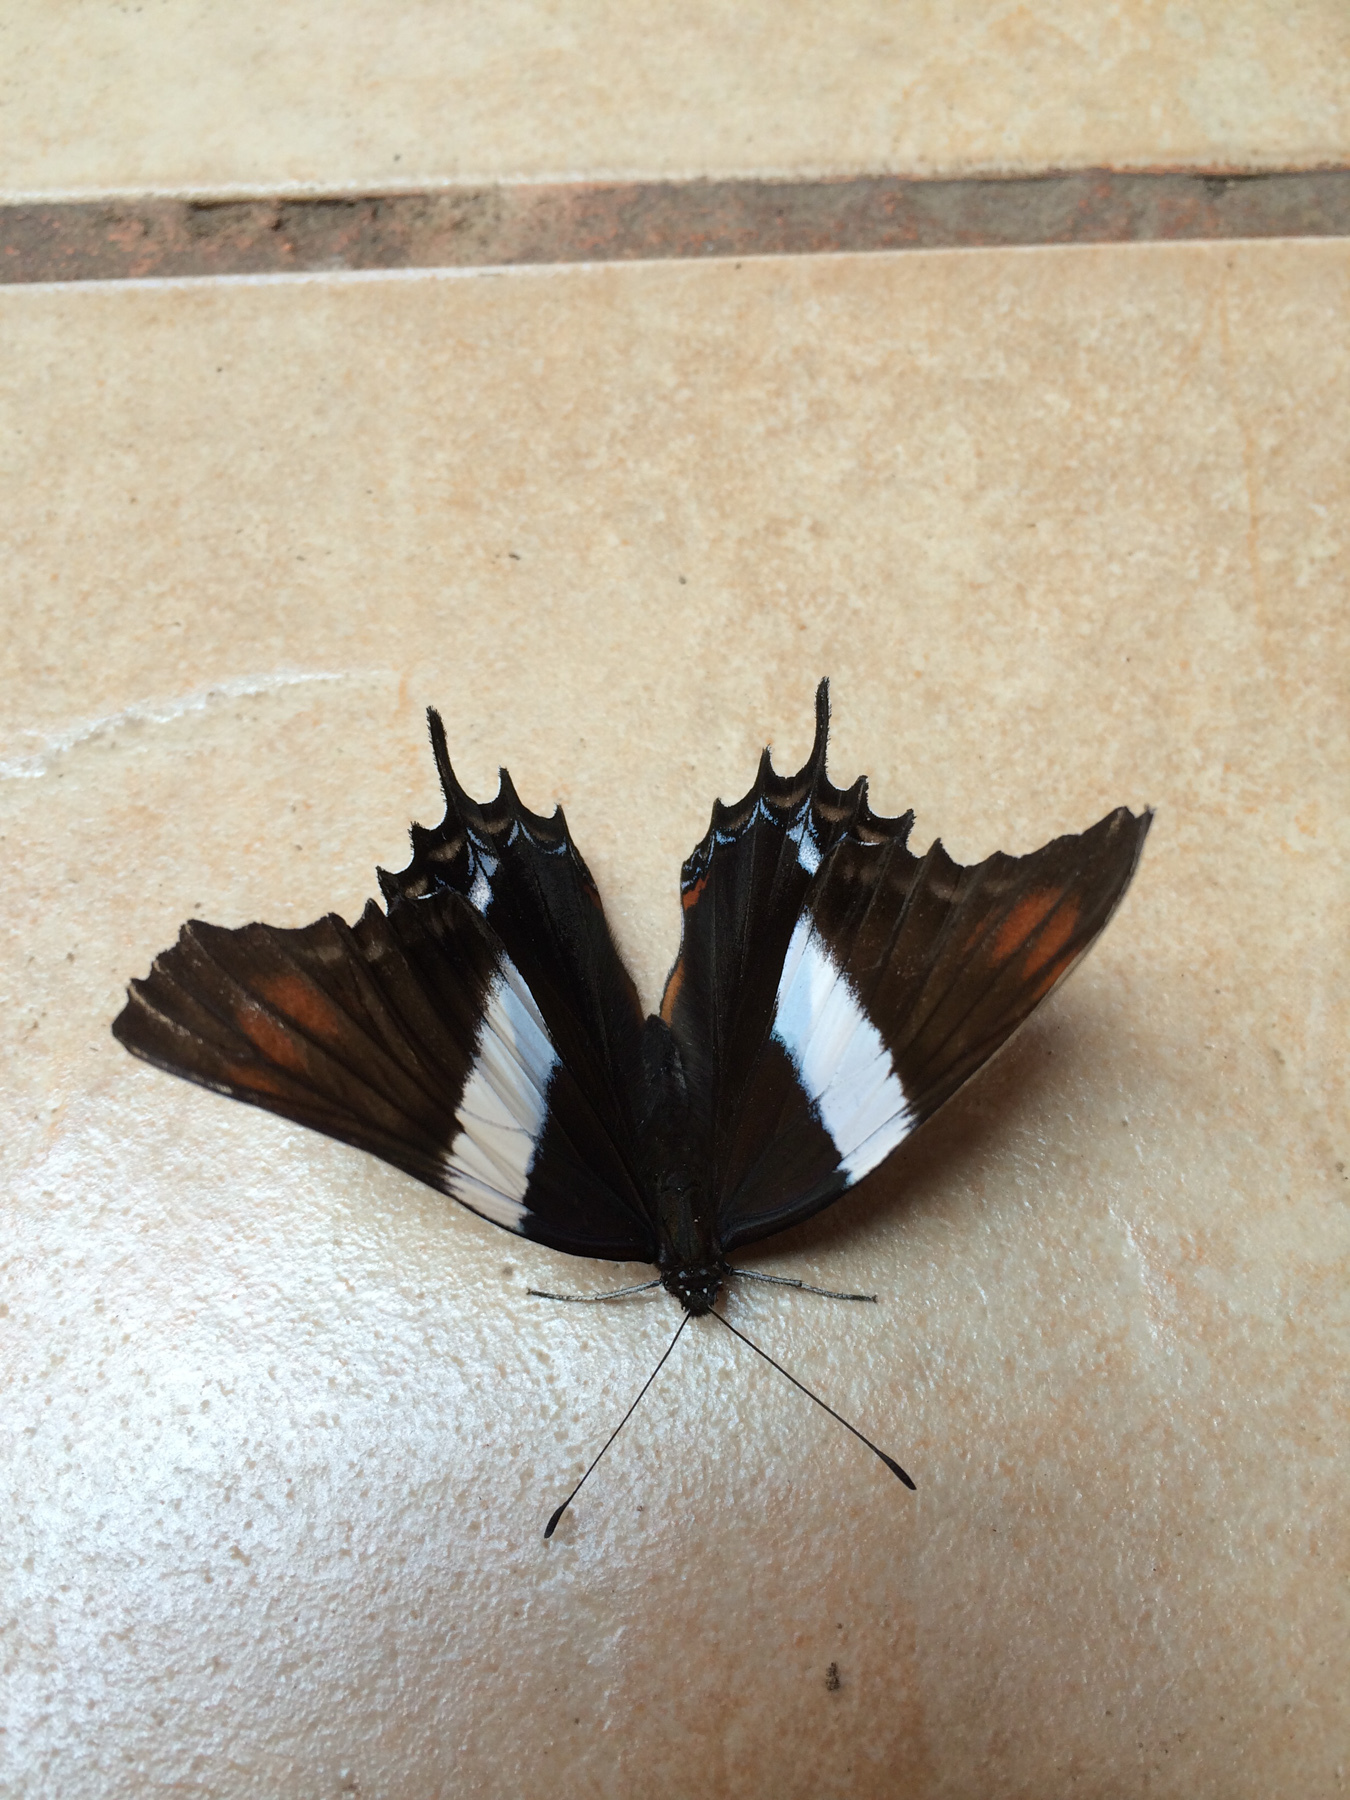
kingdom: Animalia
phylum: Arthropoda
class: Insecta
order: Lepidoptera
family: Nymphalidae
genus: Siproeta
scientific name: Siproeta superba
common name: Broad-banded page
